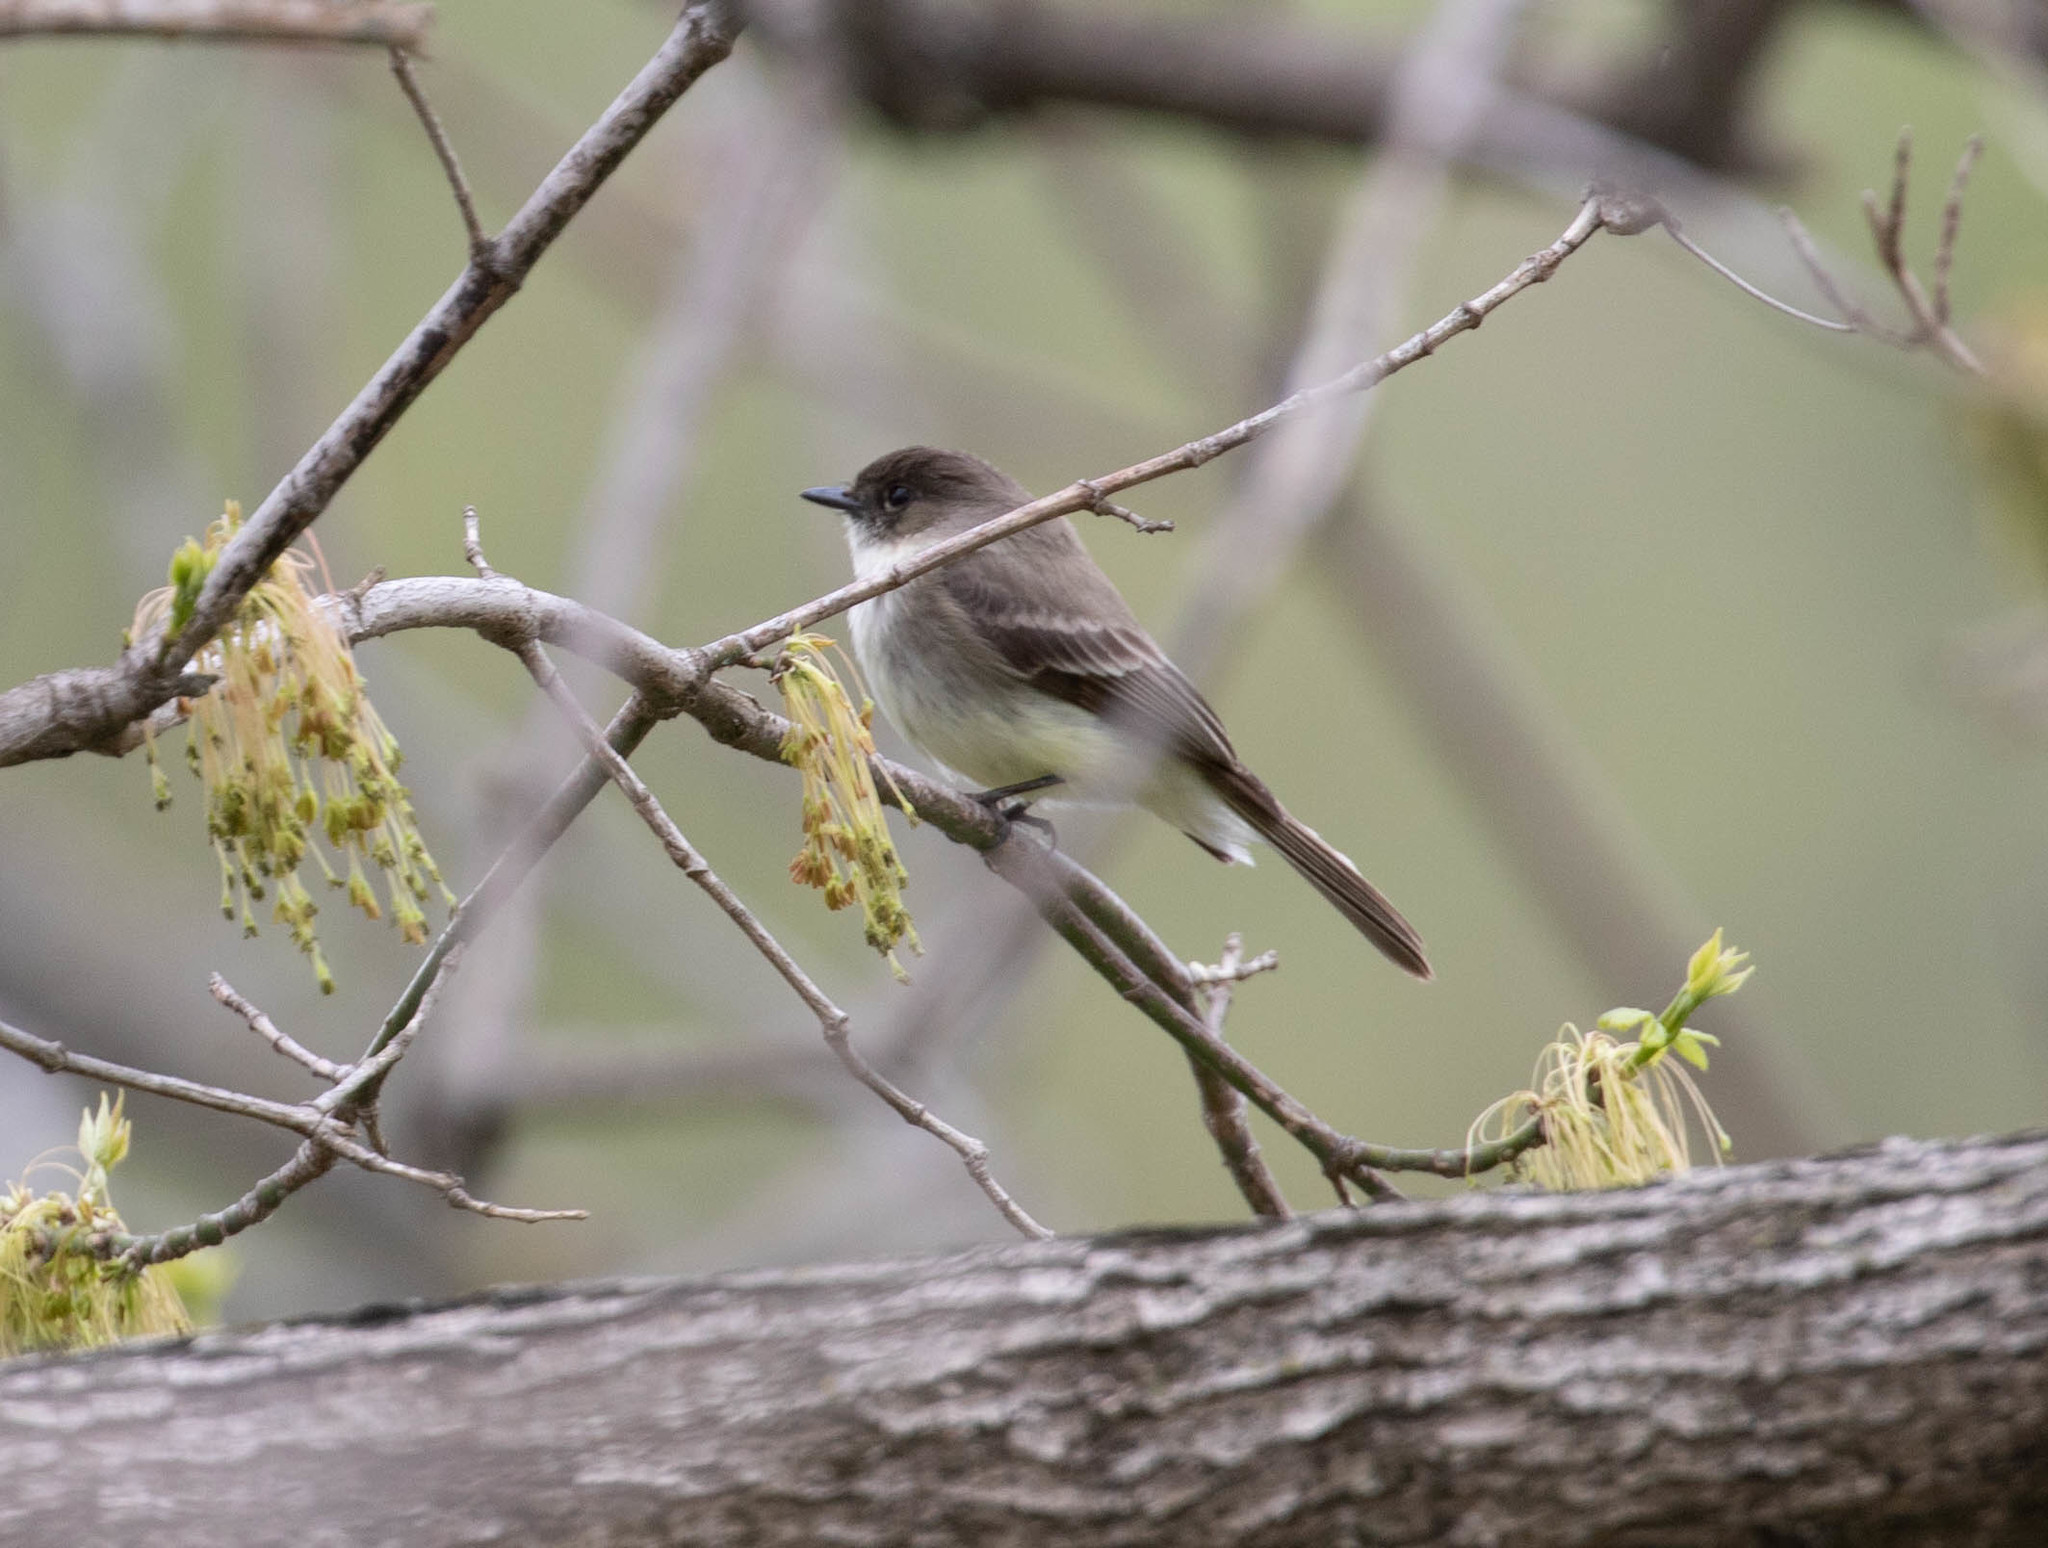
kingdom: Animalia
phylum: Chordata
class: Aves
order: Passeriformes
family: Tyrannidae
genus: Sayornis
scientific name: Sayornis phoebe
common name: Eastern phoebe
